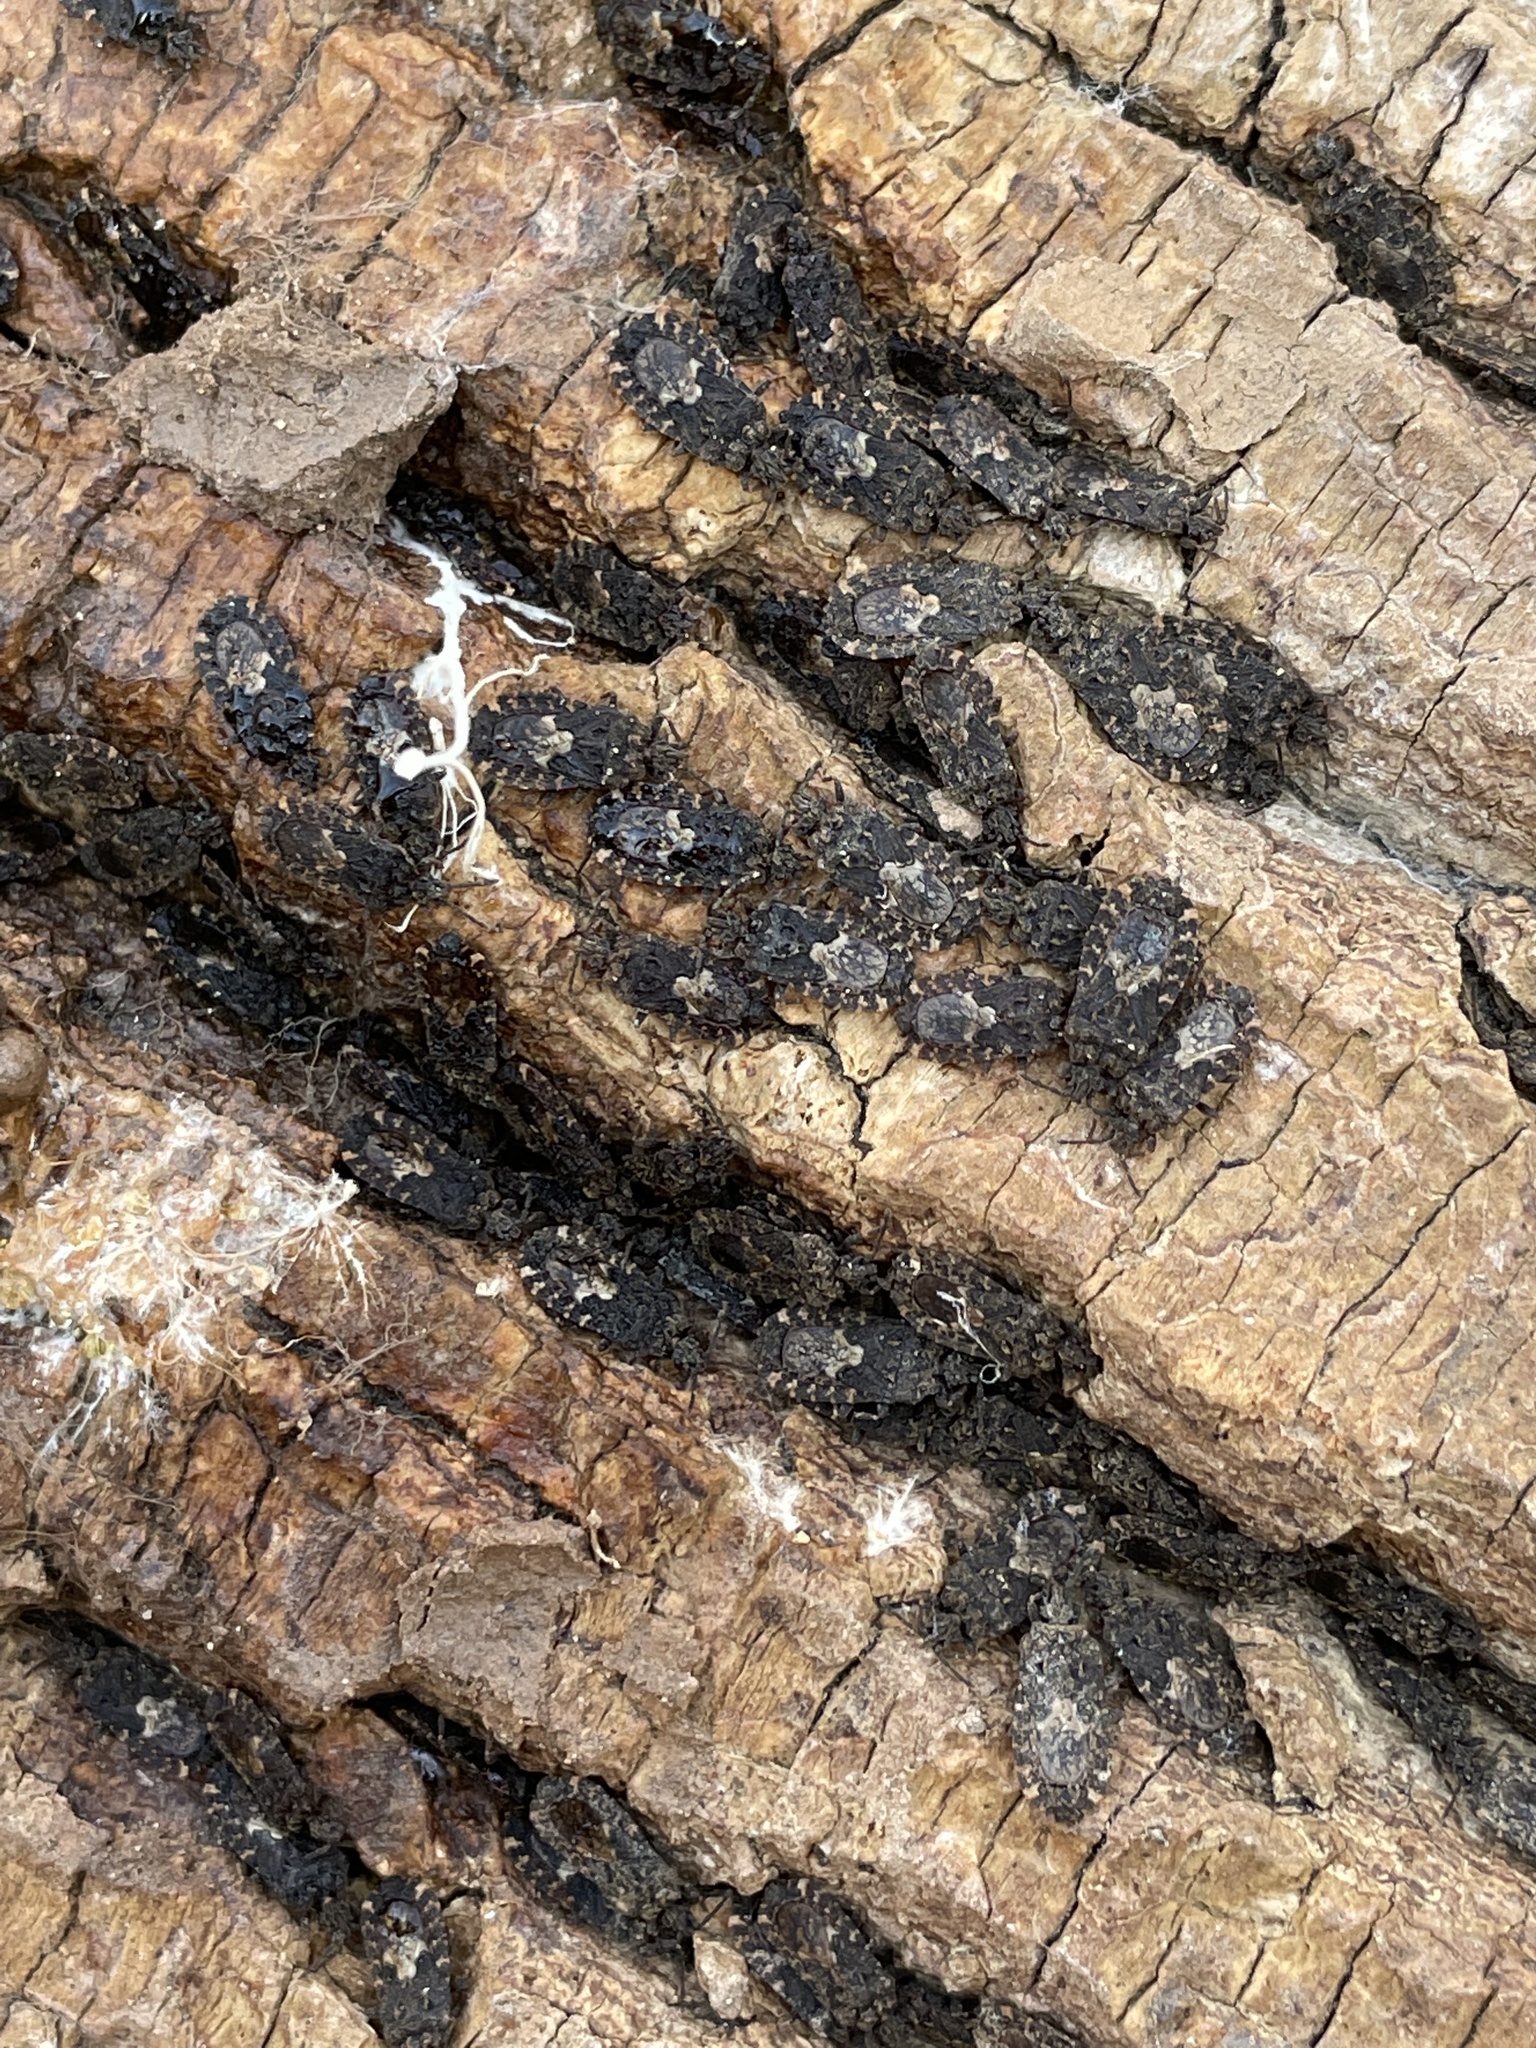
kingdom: Animalia
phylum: Arthropoda
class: Insecta
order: Hemiptera
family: Aradidae
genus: Mezira
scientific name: Mezira
